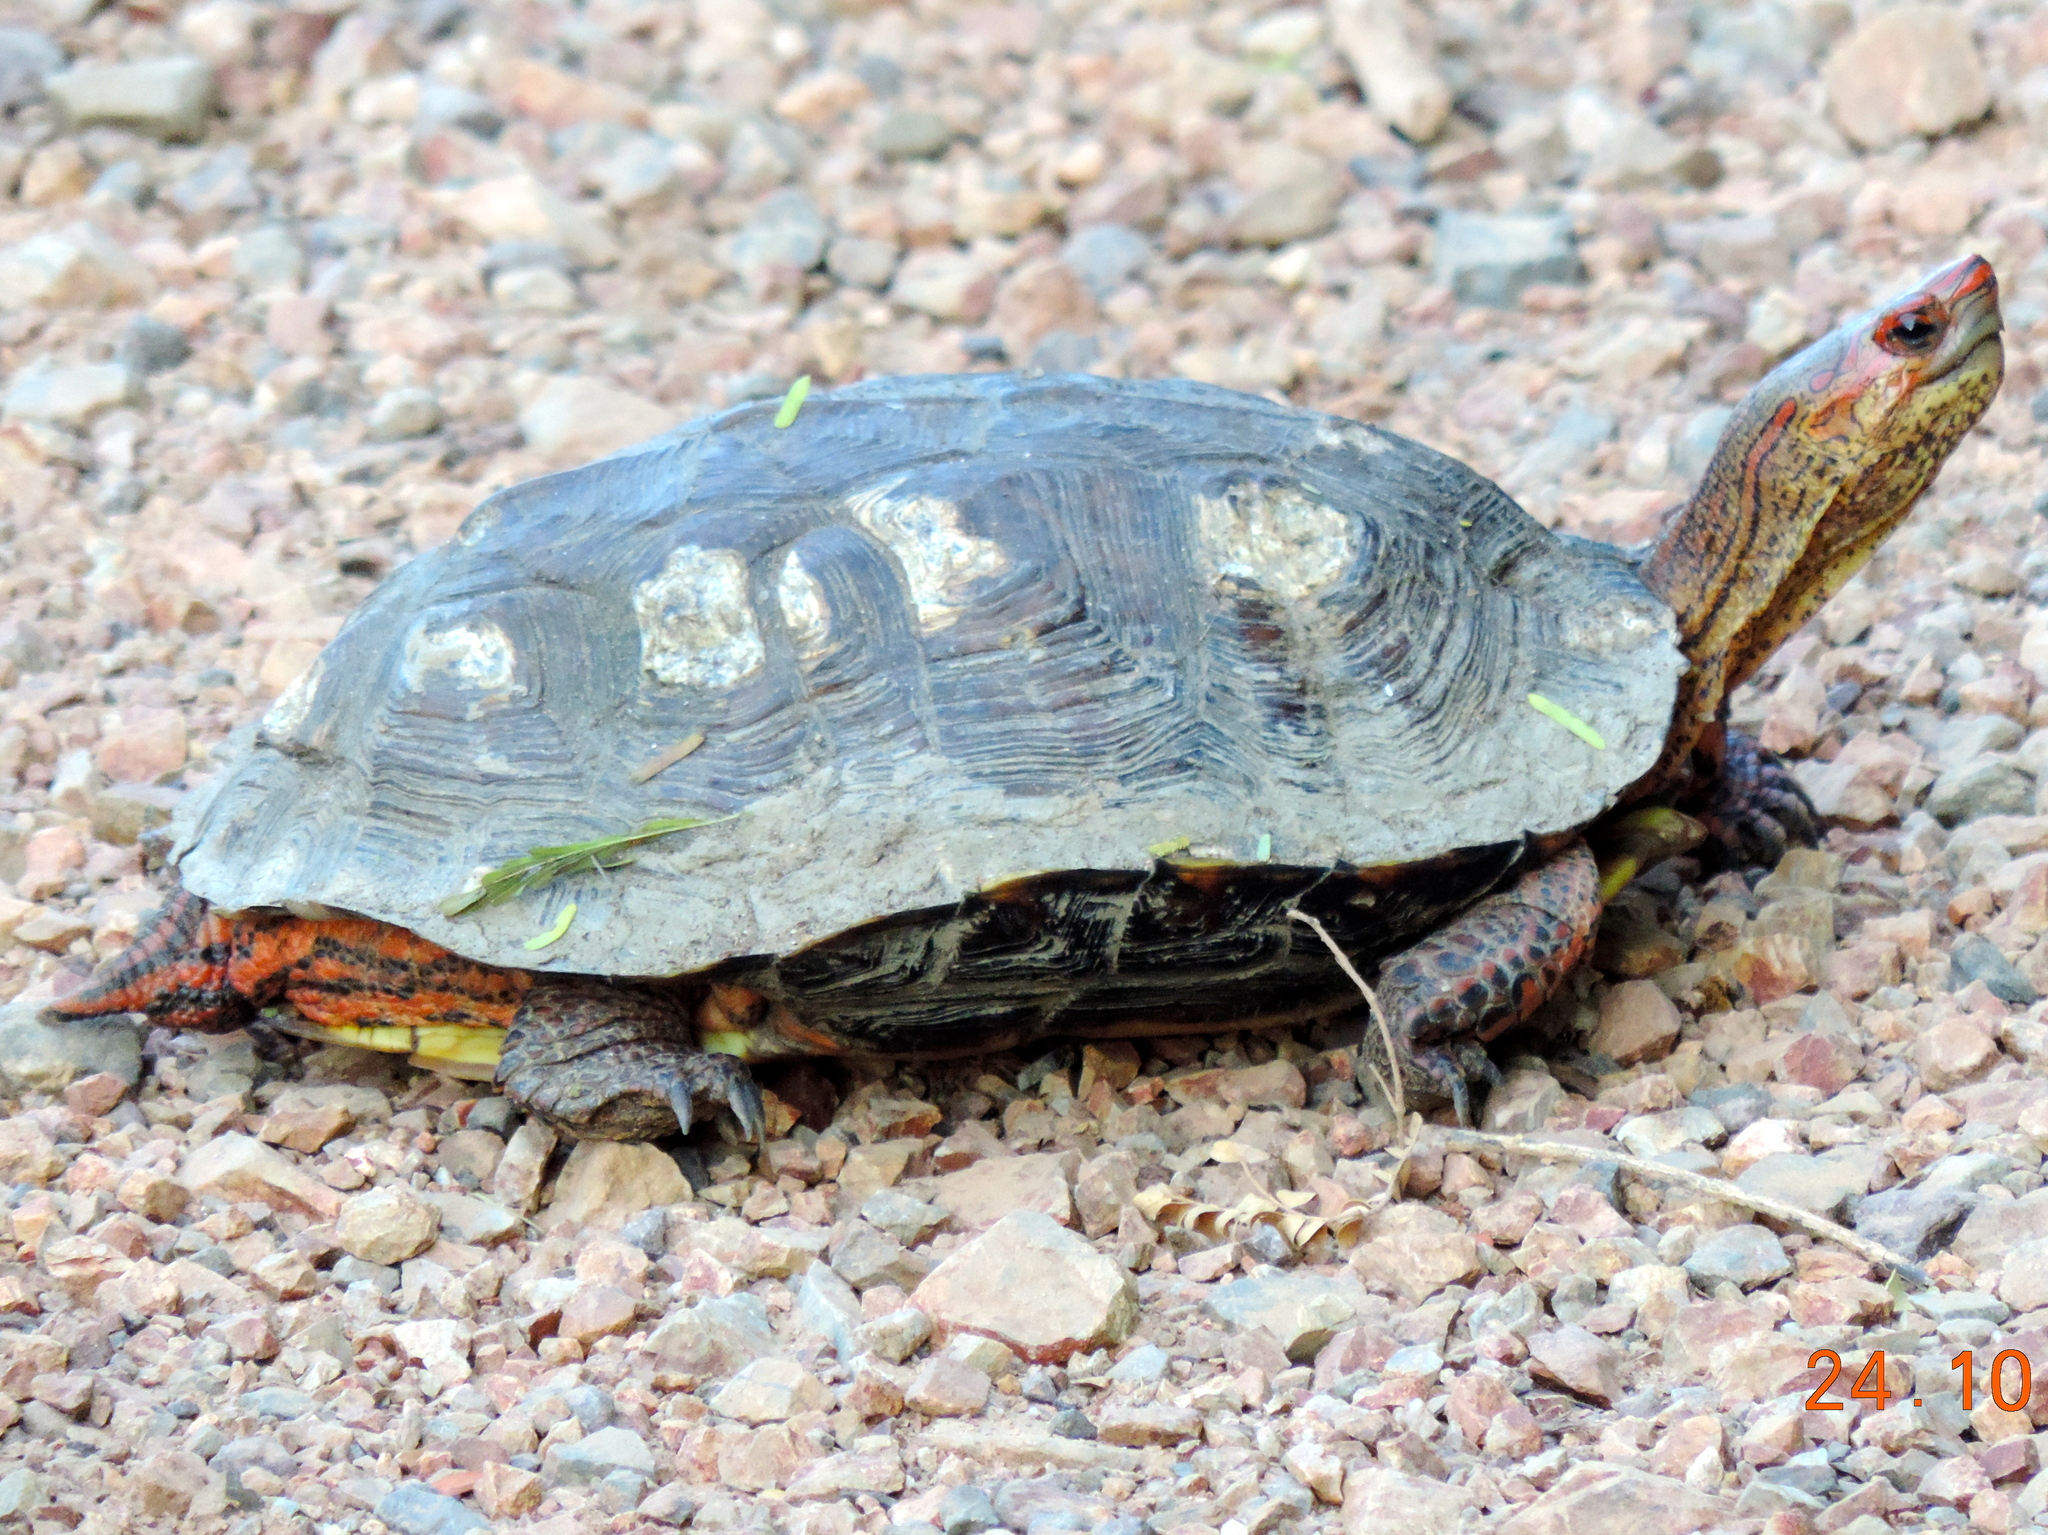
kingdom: Animalia
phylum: Chordata
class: Testudines
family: Geoemydidae
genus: Rhinoclemmys
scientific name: Rhinoclemmys pulcherrima
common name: Painted wood turtle
